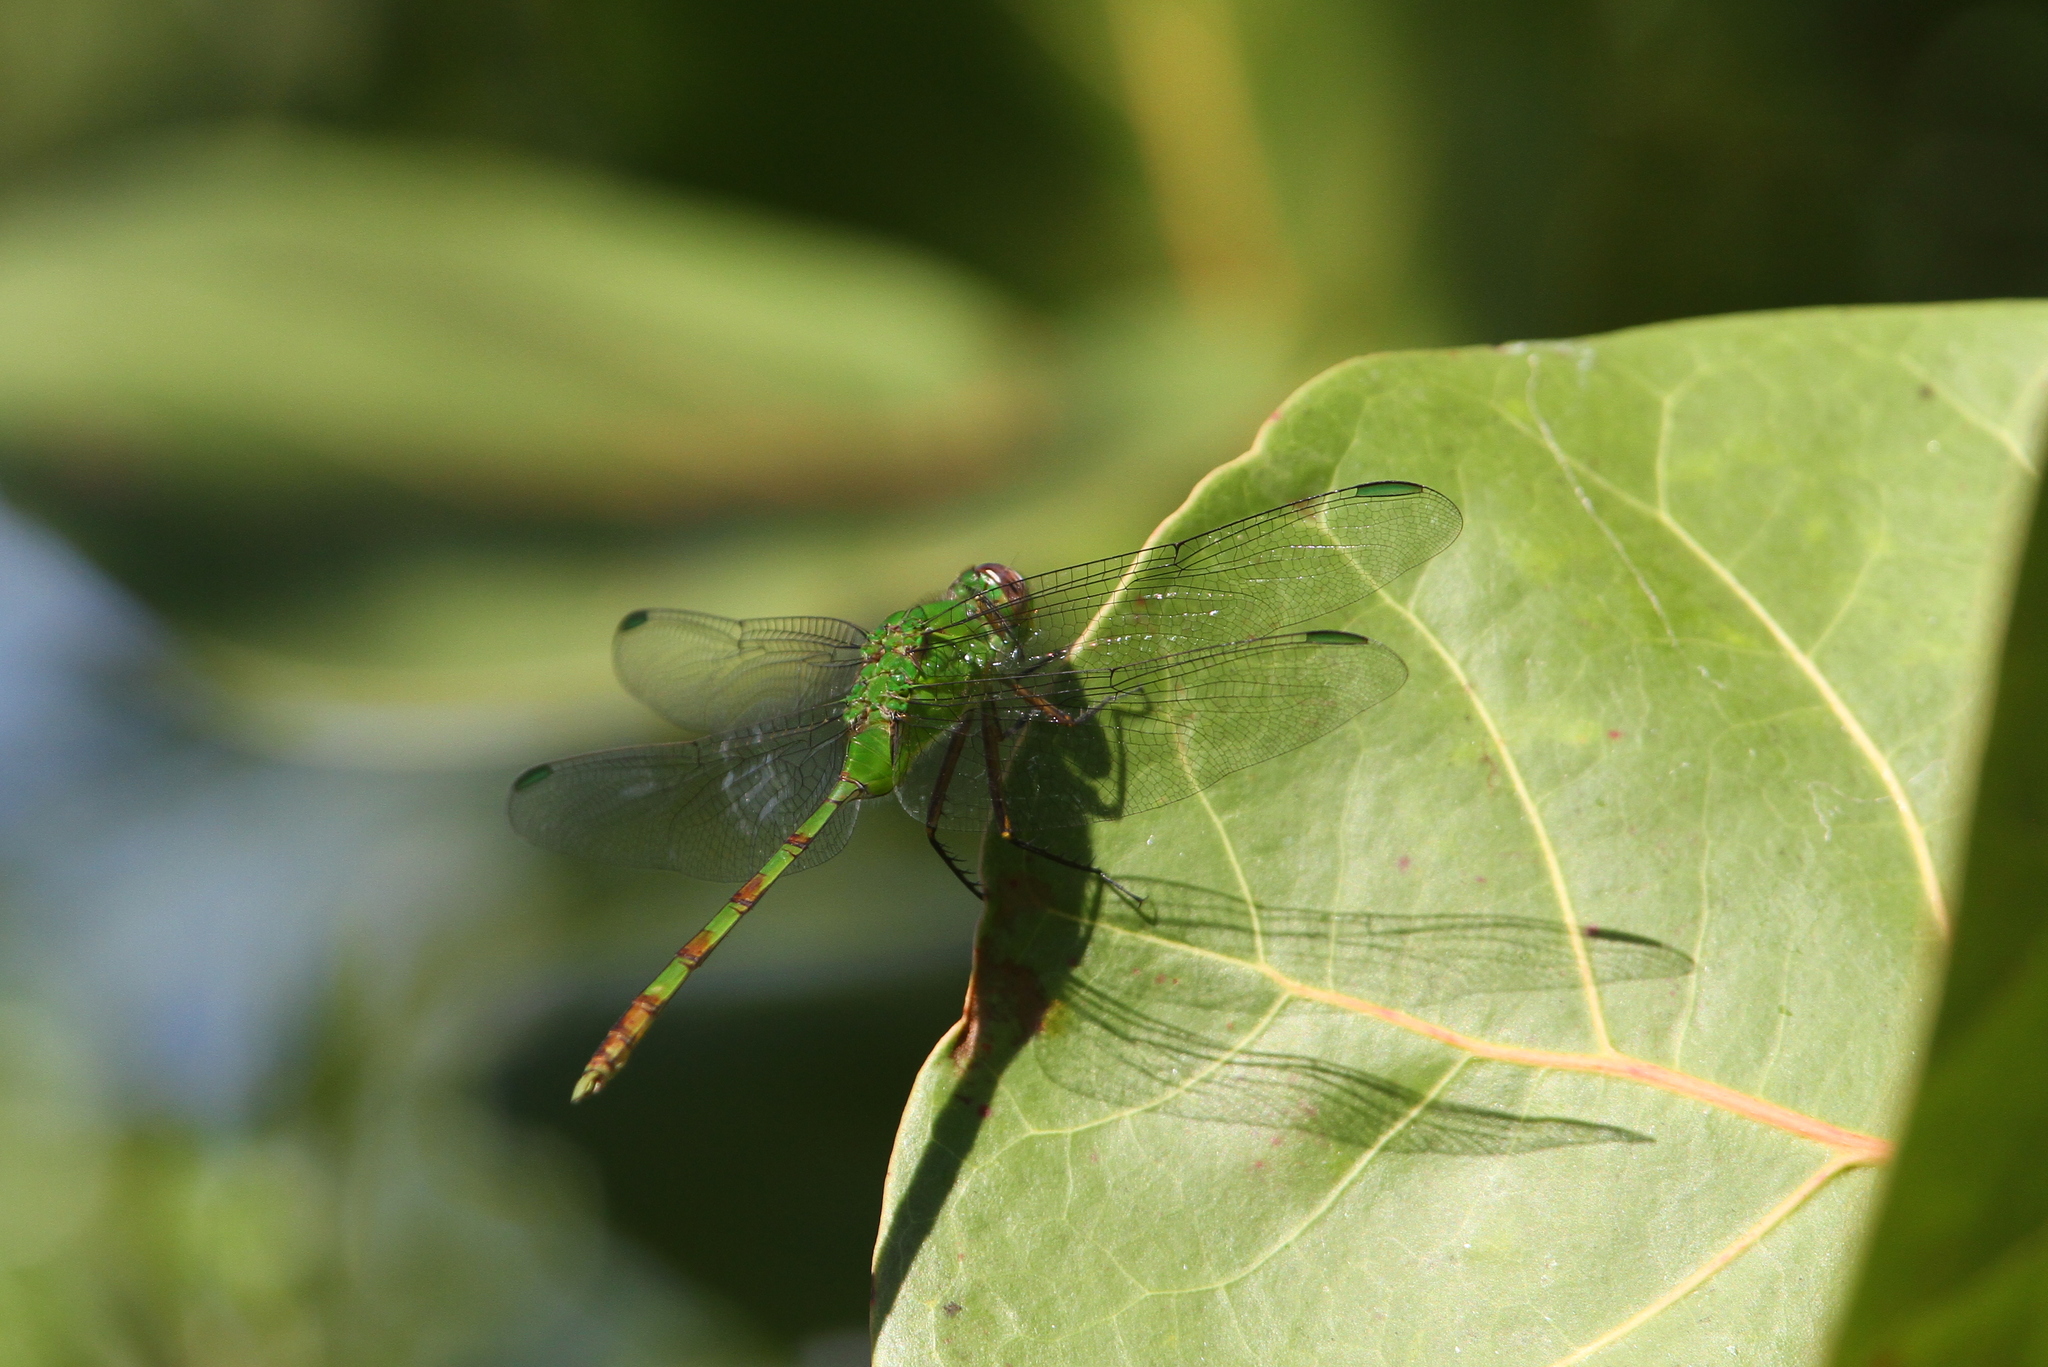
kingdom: Animalia
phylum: Arthropoda
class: Insecta
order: Odonata
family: Libellulidae
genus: Erythemis
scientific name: Erythemis vesiculosa
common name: Great pondhawk
